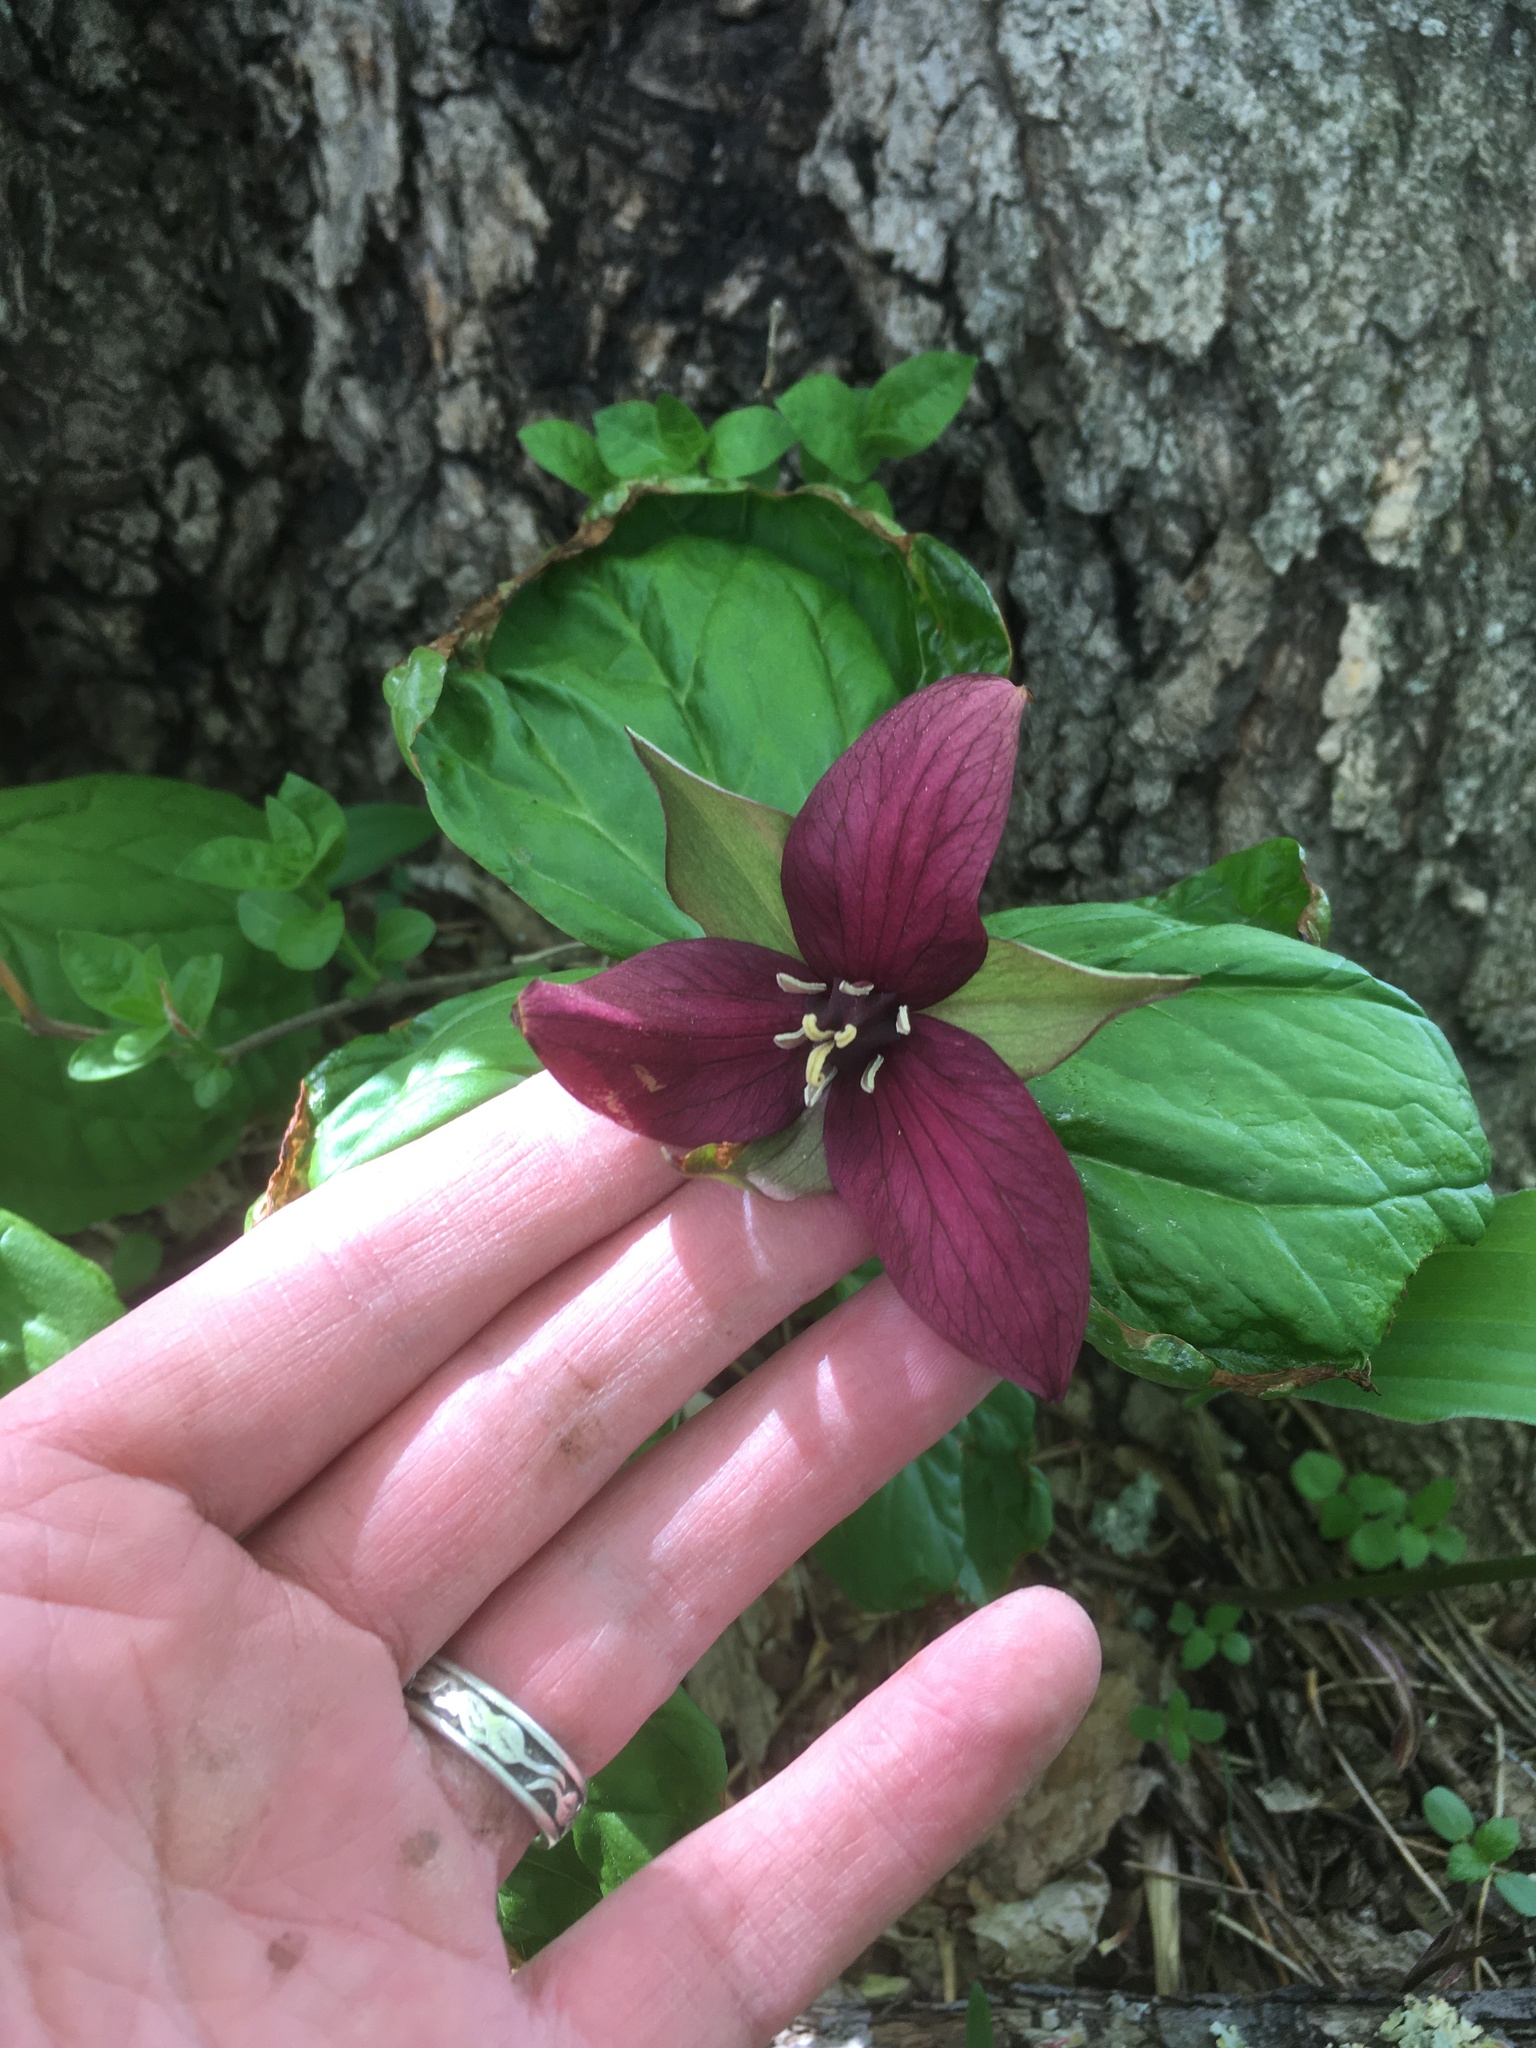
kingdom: Plantae
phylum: Tracheophyta
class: Liliopsida
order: Liliales
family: Melanthiaceae
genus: Trillium
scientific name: Trillium erectum
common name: Purple trillium
